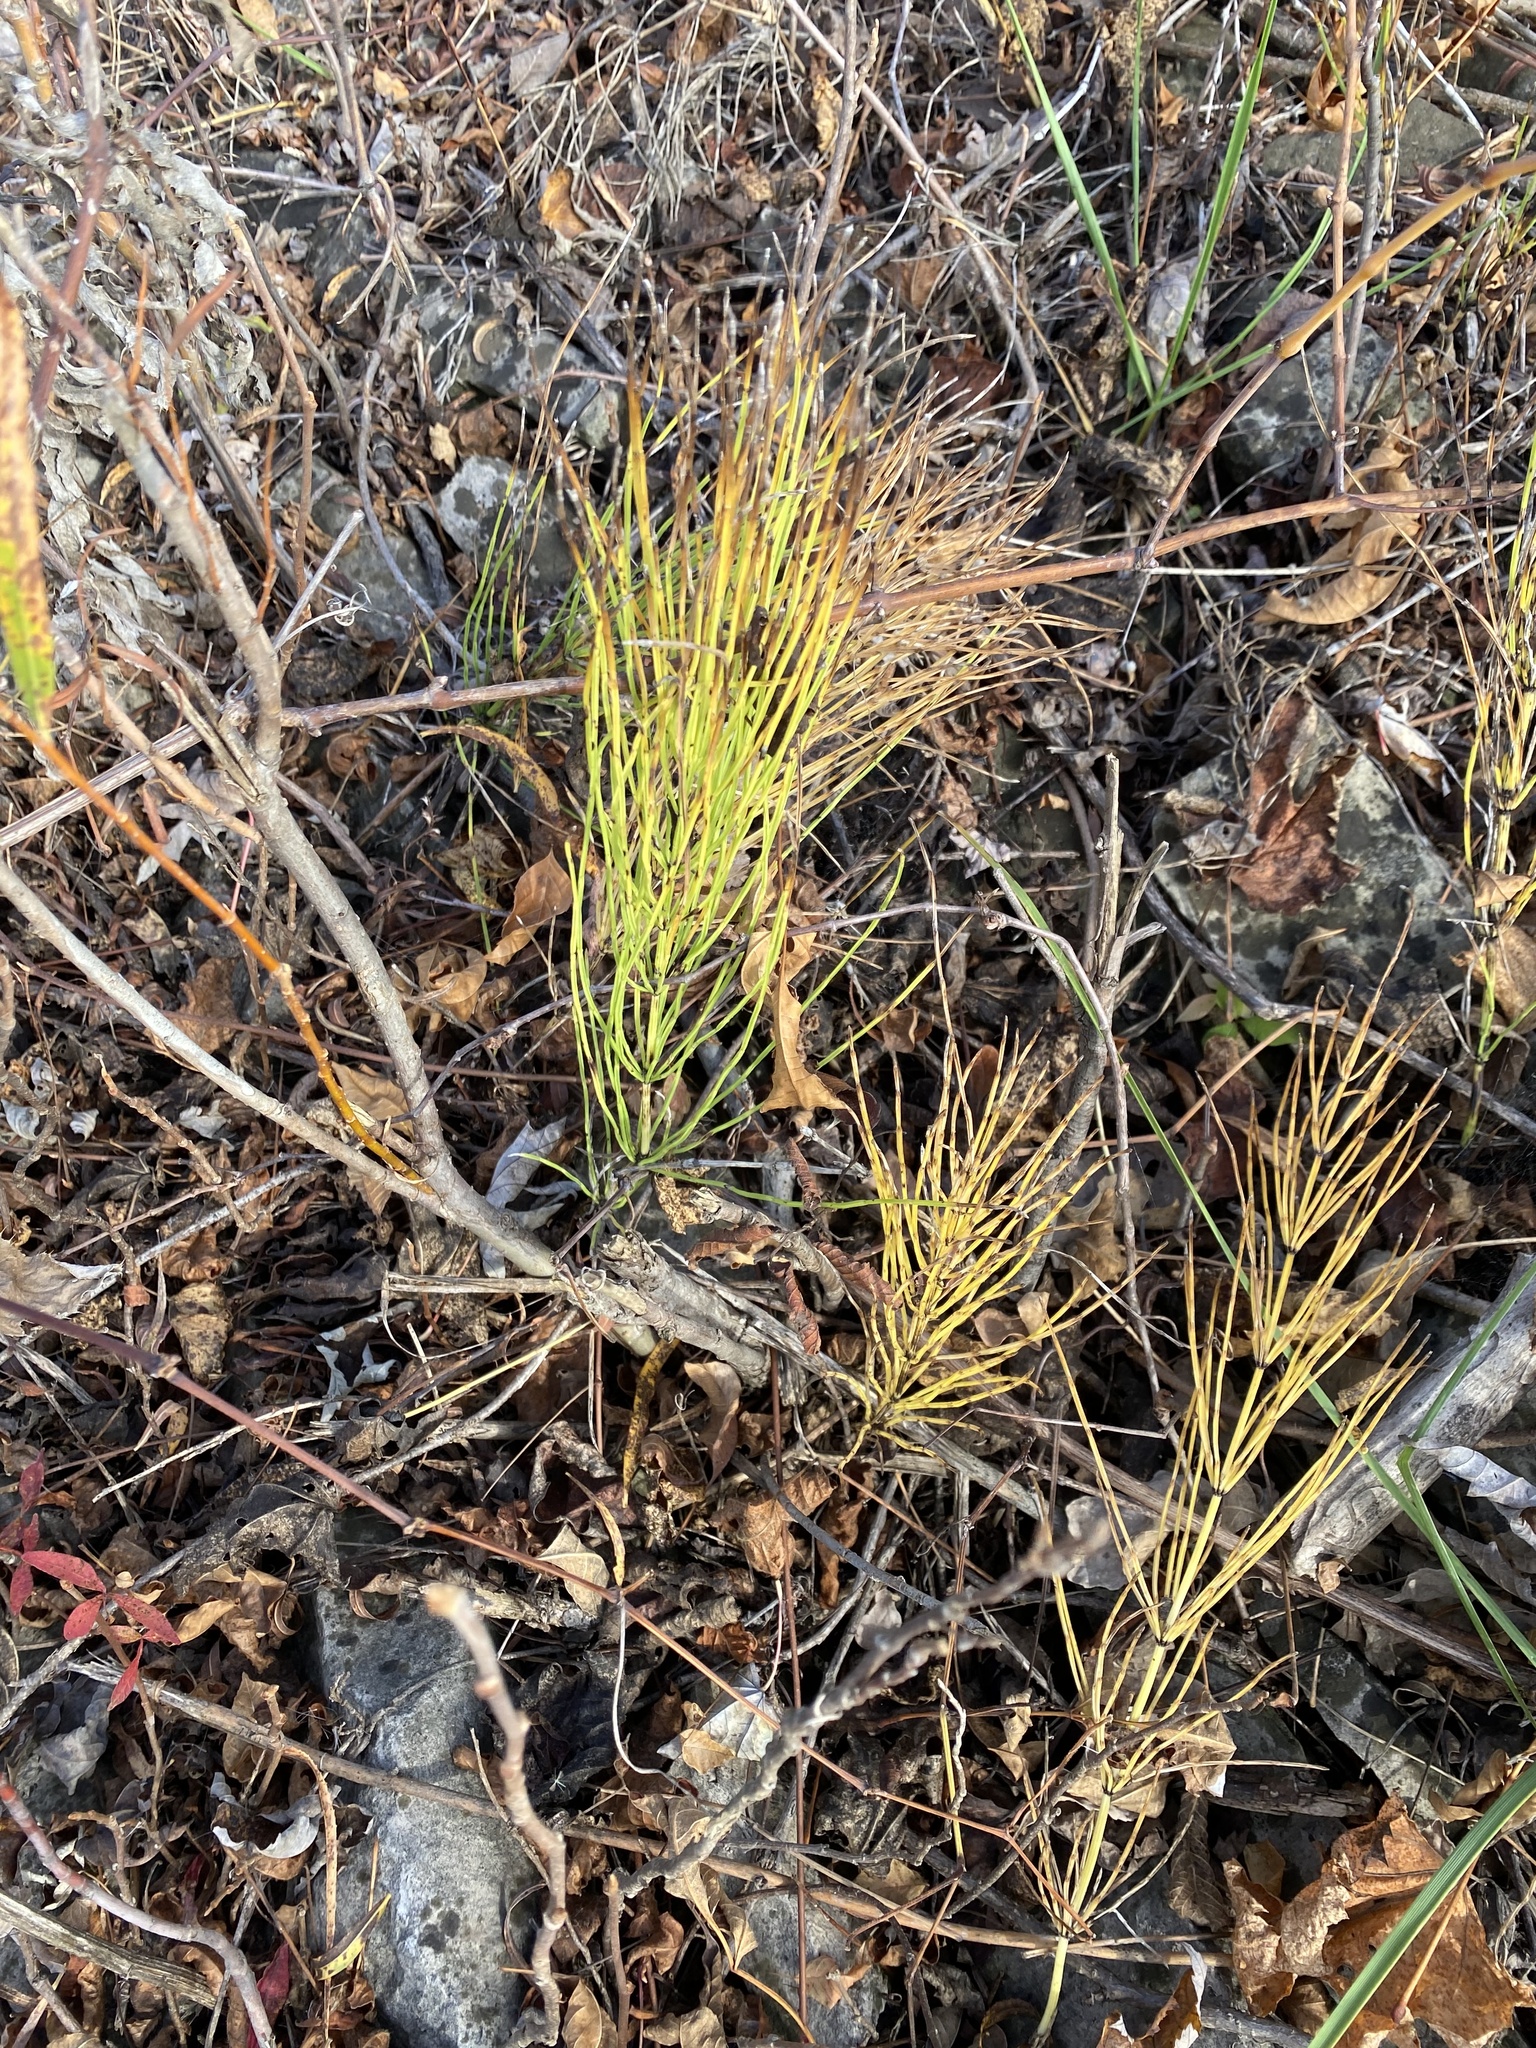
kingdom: Plantae
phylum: Tracheophyta
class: Polypodiopsida
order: Equisetales
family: Equisetaceae
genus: Equisetum
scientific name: Equisetum arvense
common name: Field horsetail
